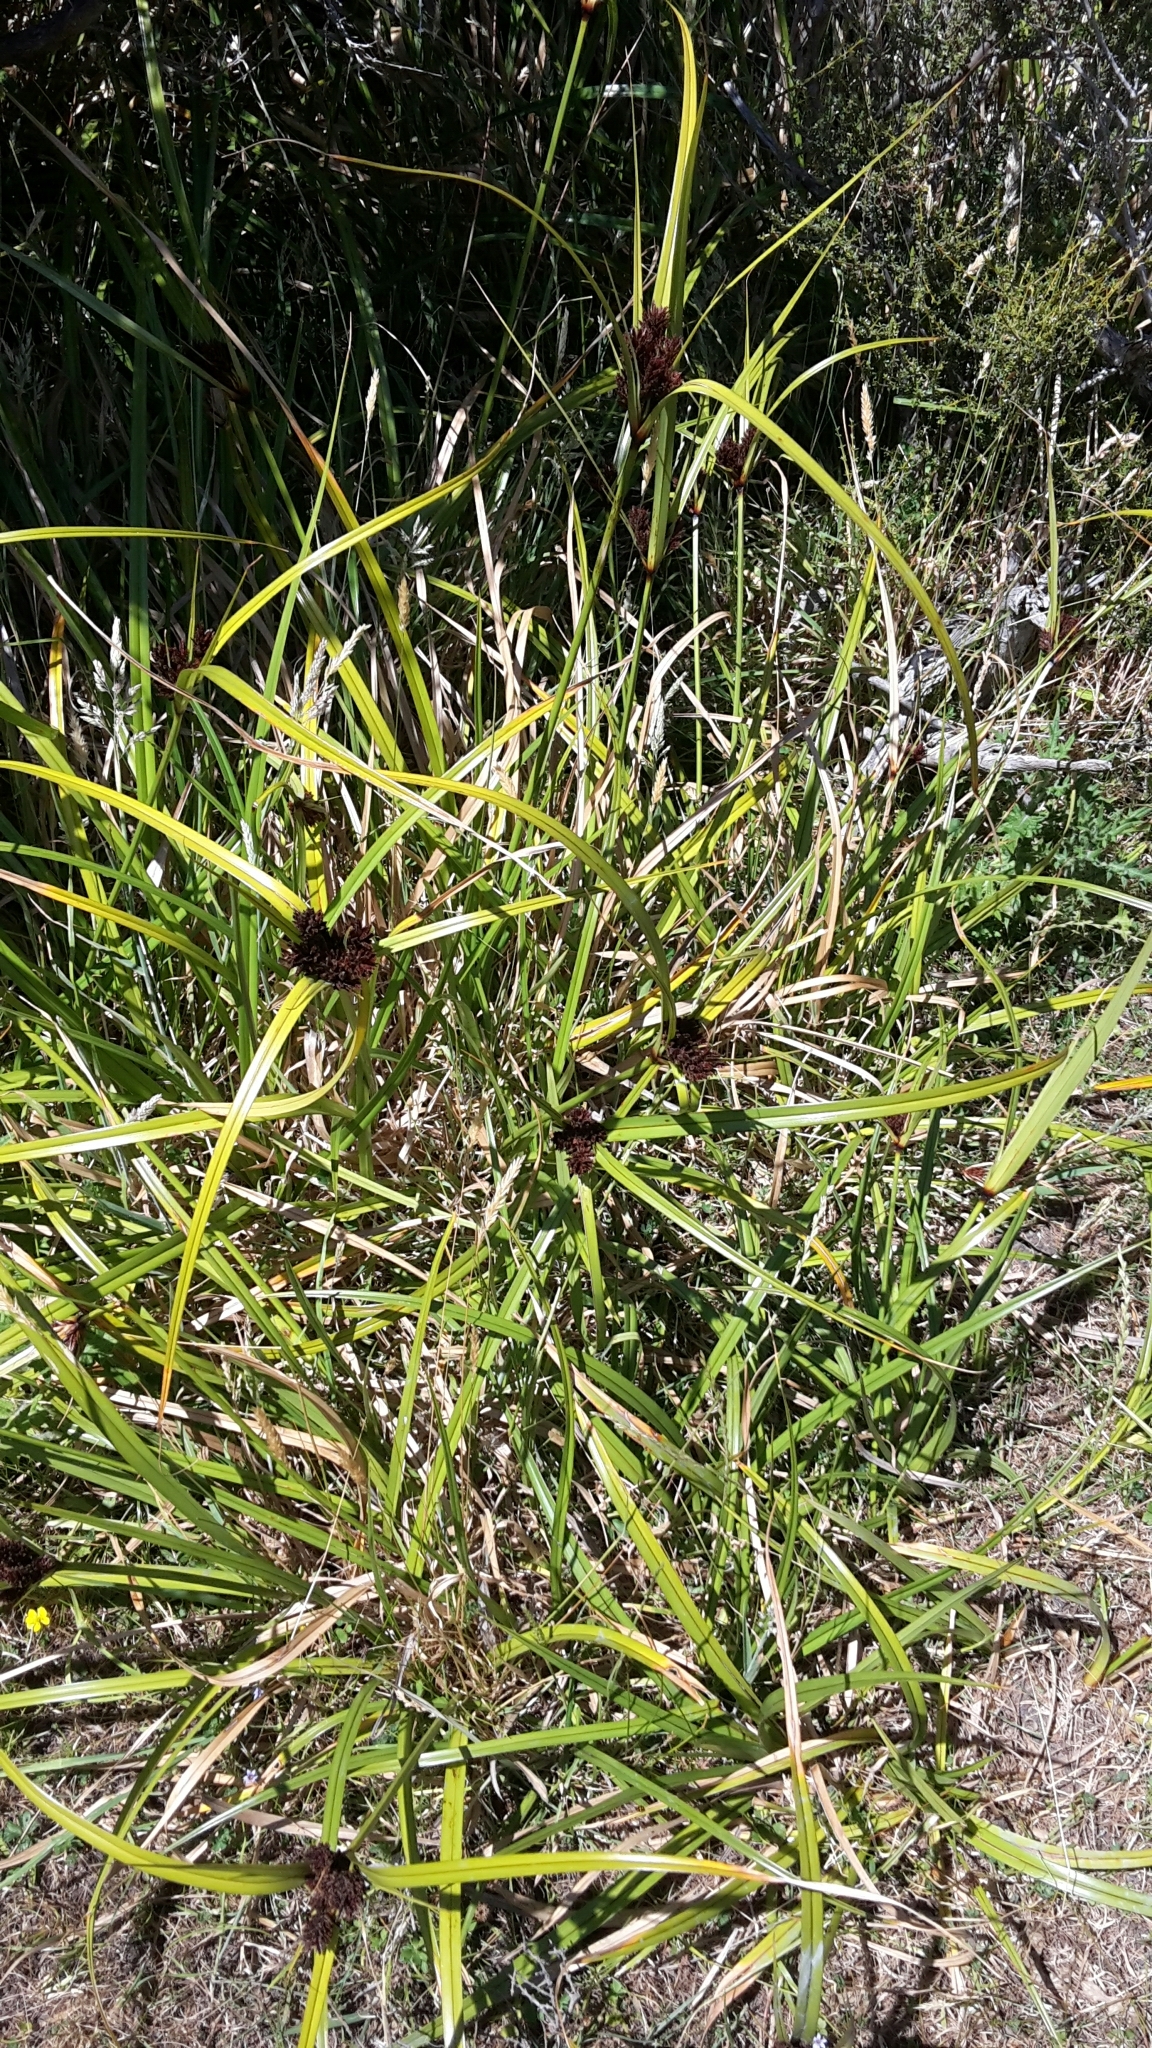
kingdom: Plantae
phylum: Tracheophyta
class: Liliopsida
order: Poales
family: Cyperaceae
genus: Cyperus
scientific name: Cyperus ustulatus
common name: Giant umbrella-sedge
